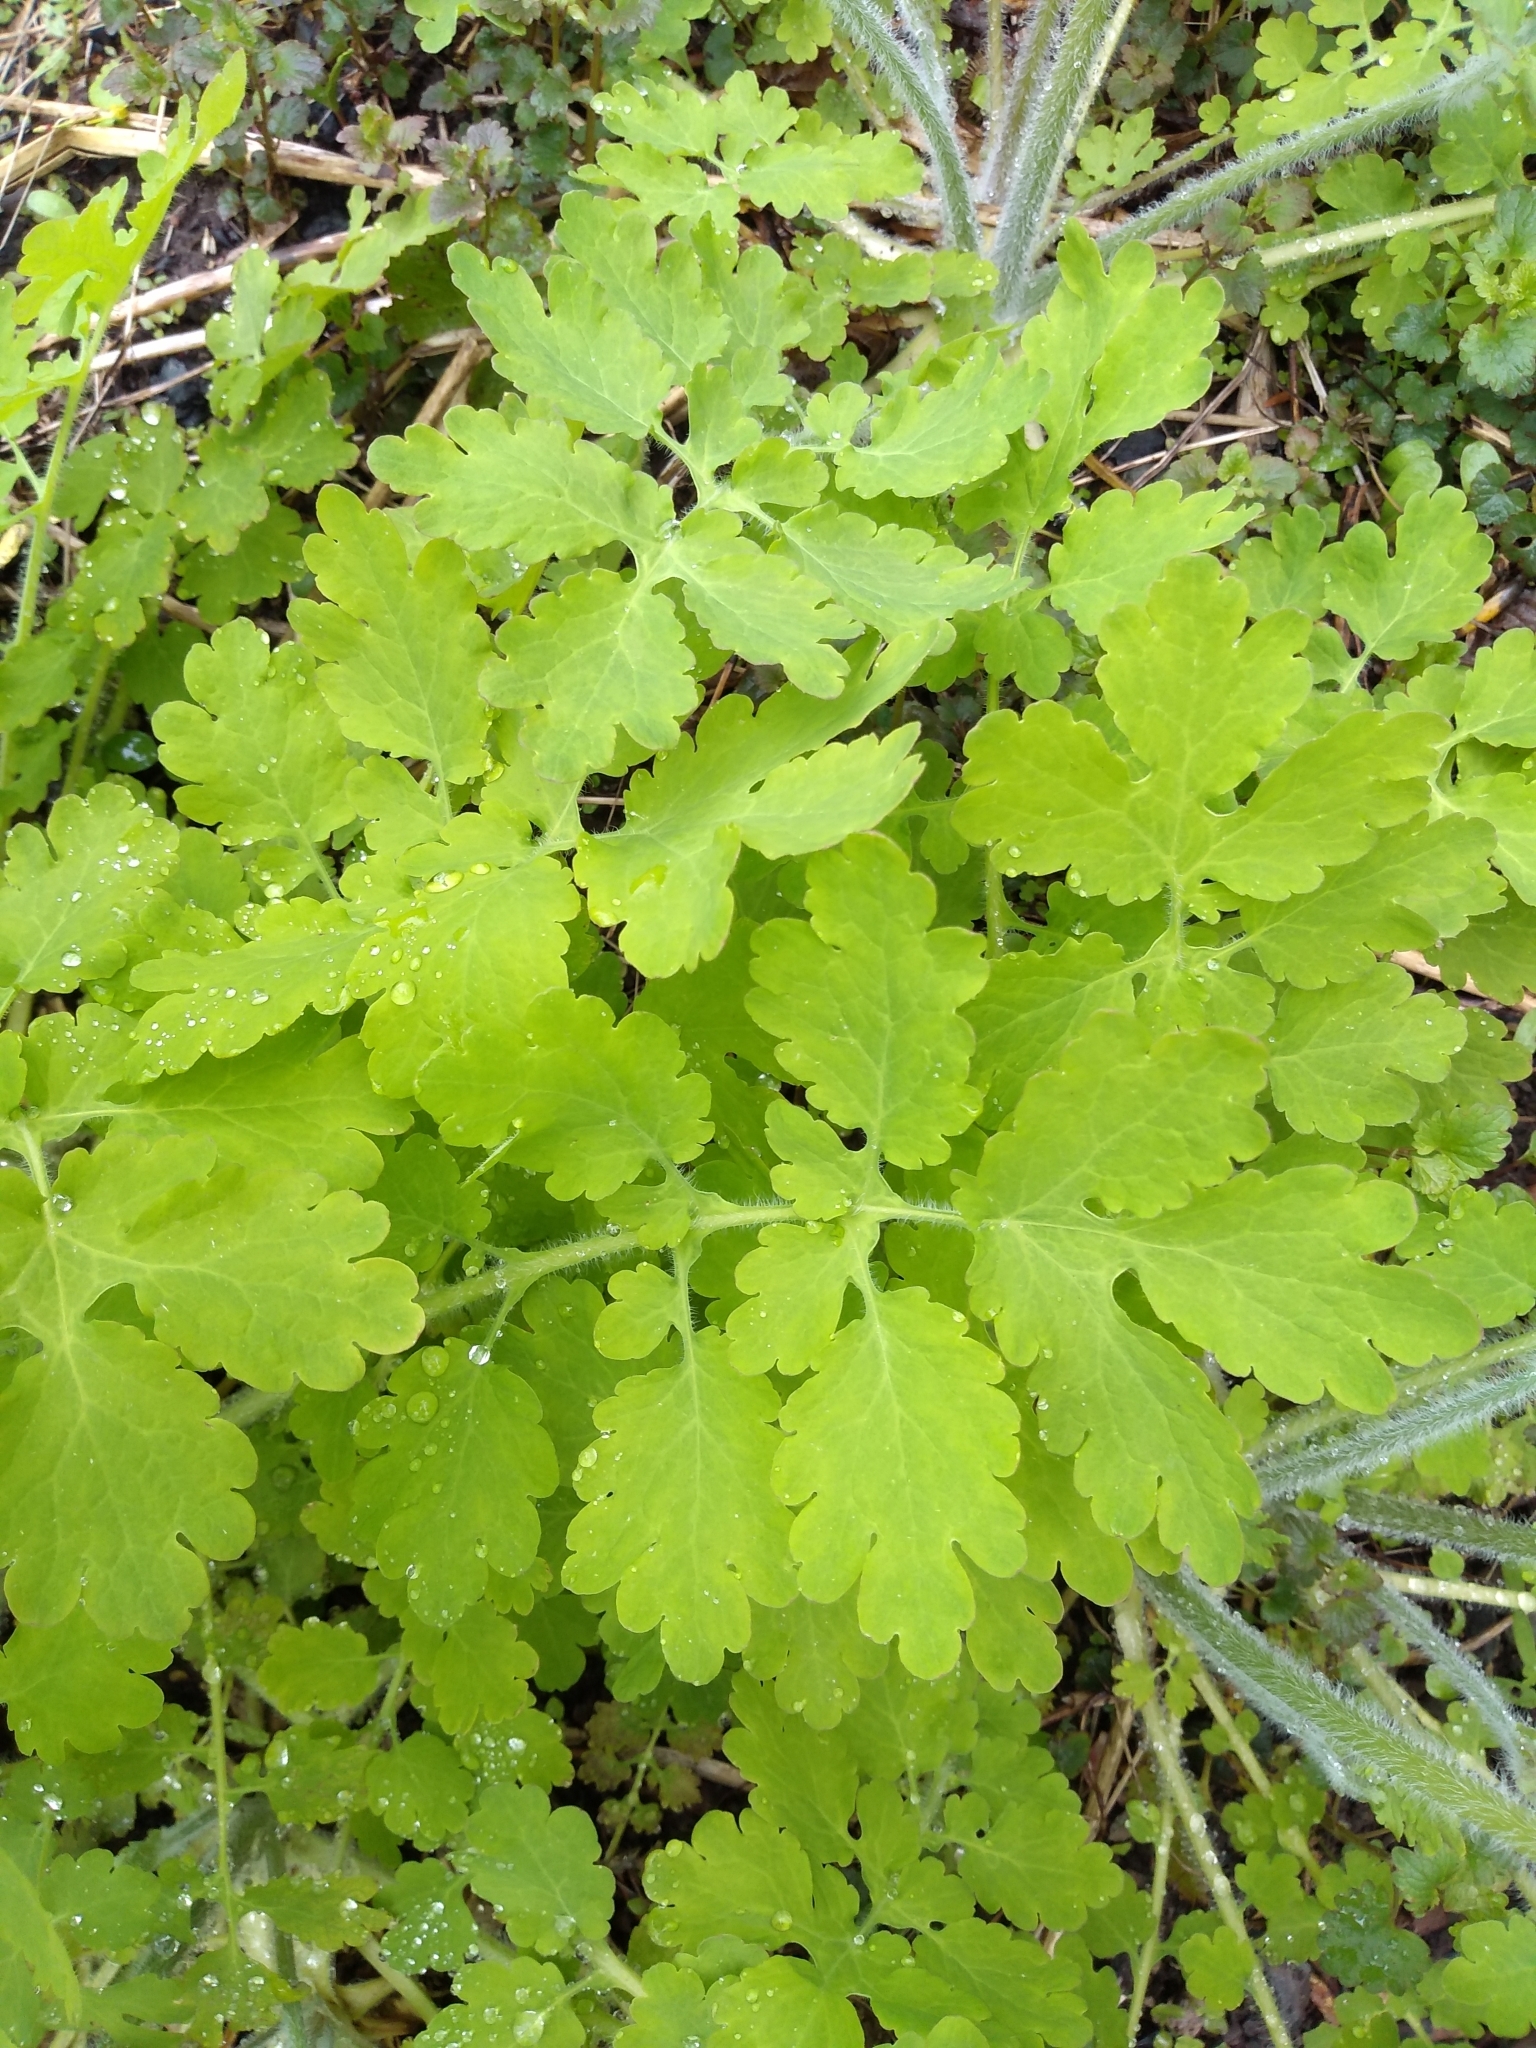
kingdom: Plantae
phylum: Tracheophyta
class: Magnoliopsida
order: Ranunculales
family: Papaveraceae
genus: Chelidonium
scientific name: Chelidonium majus
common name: Greater celandine
